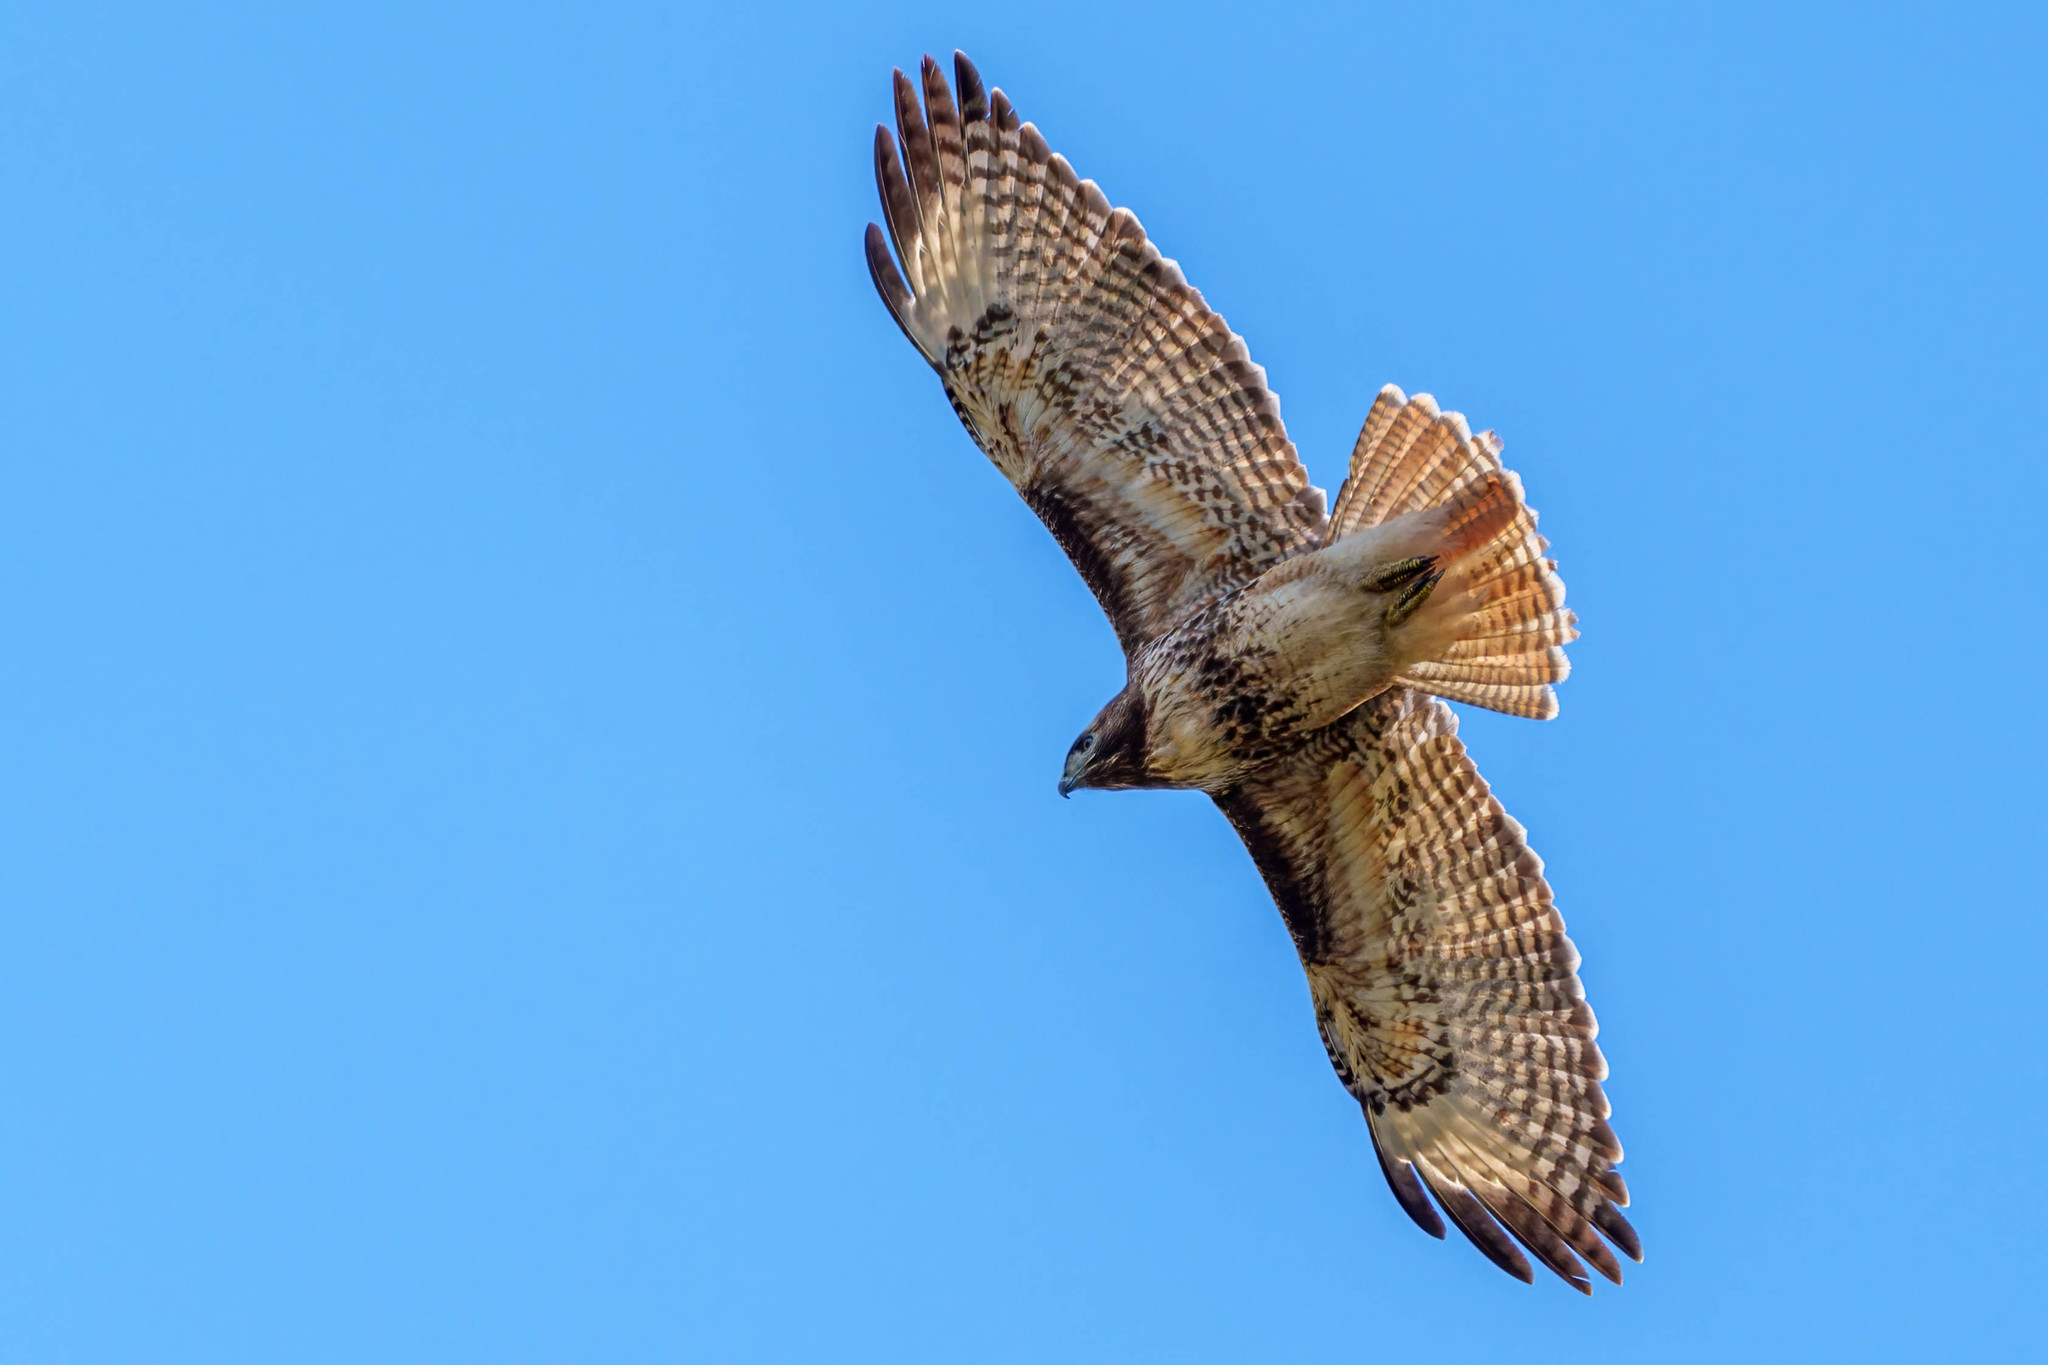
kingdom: Animalia
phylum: Chordata
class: Aves
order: Accipitriformes
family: Accipitridae
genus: Buteo
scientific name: Buteo jamaicensis
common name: Red-tailed hawk
